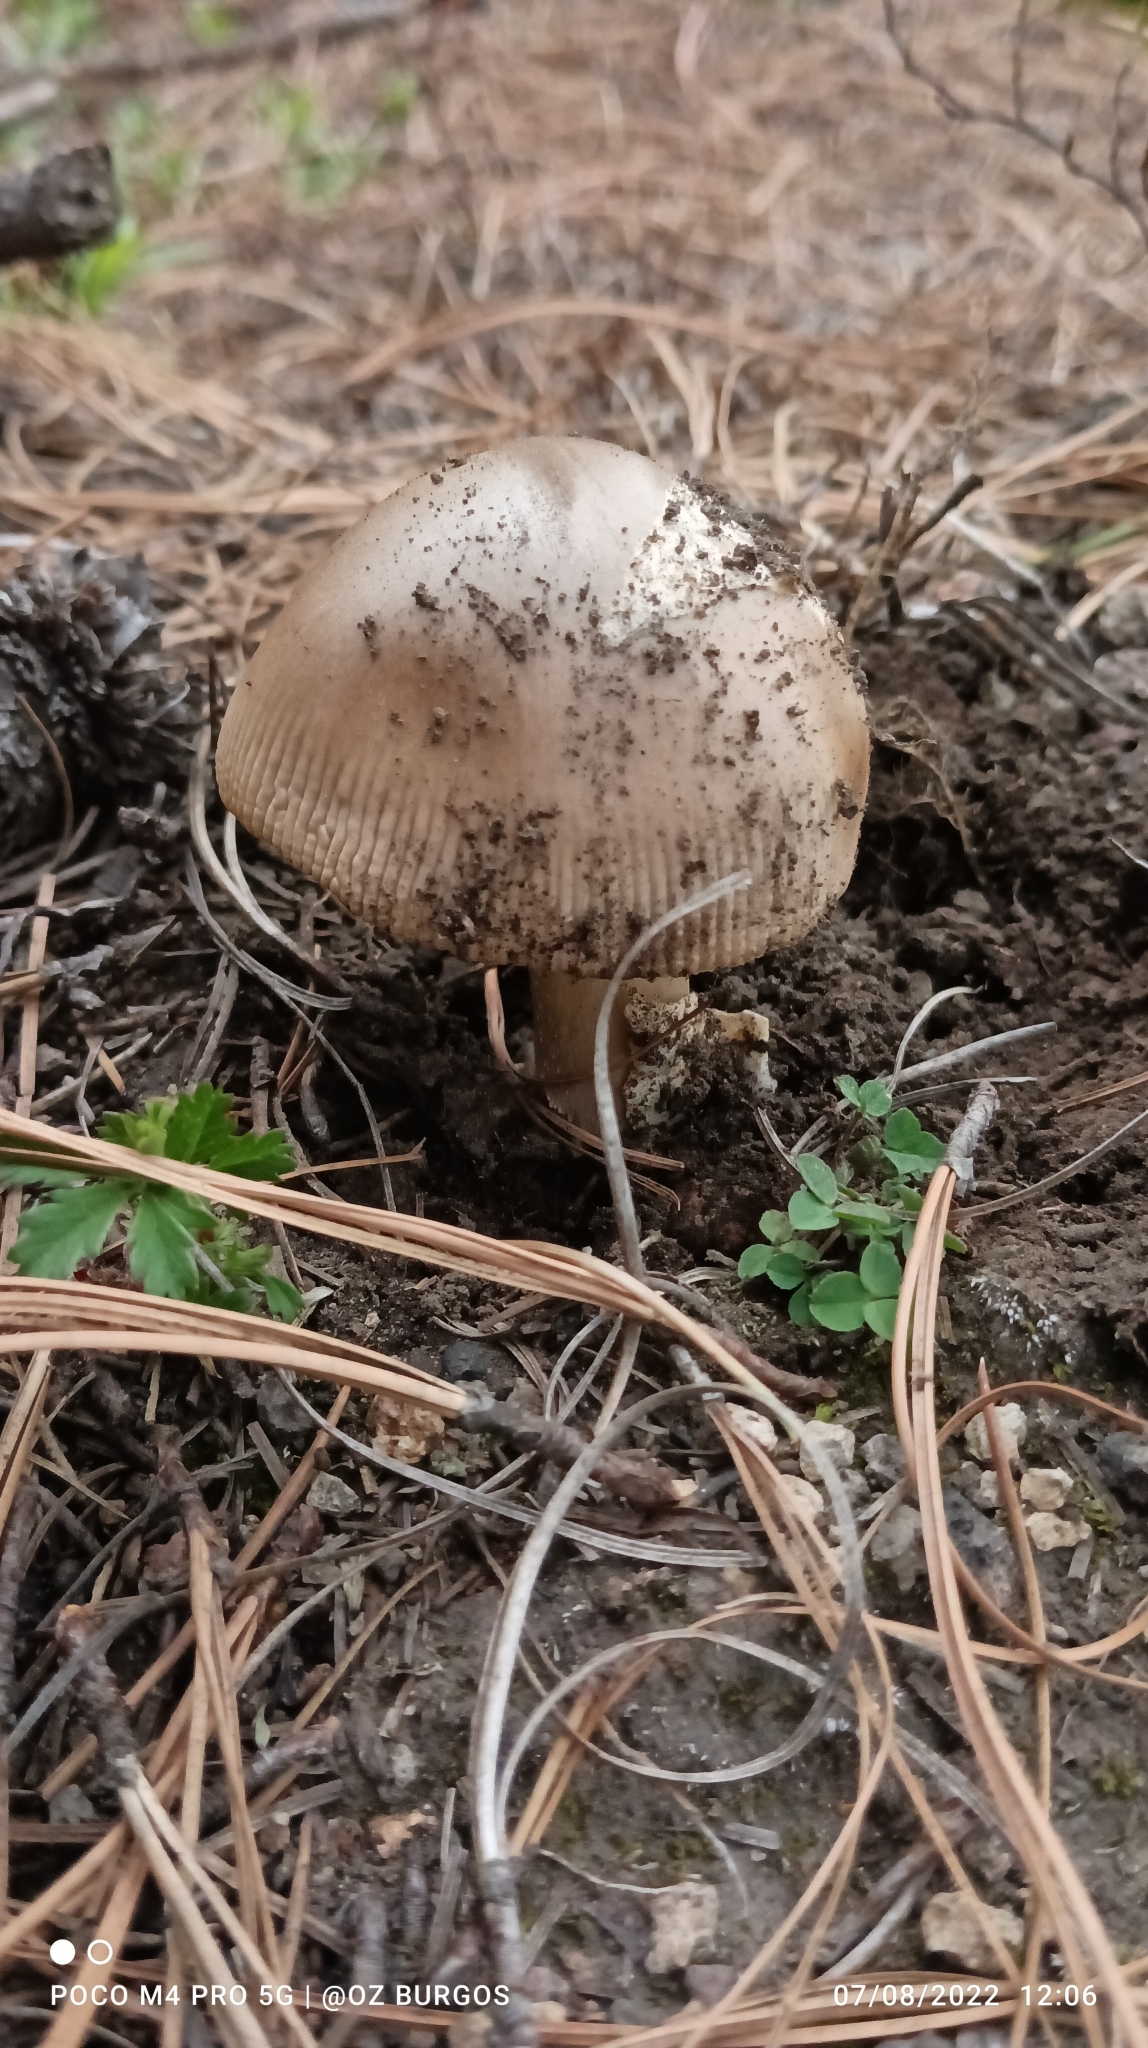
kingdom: Fungi
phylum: Basidiomycota
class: Agaricomycetes
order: Agaricales
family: Amanitaceae
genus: Amanita
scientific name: Amanita vaginata
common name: Grisette
